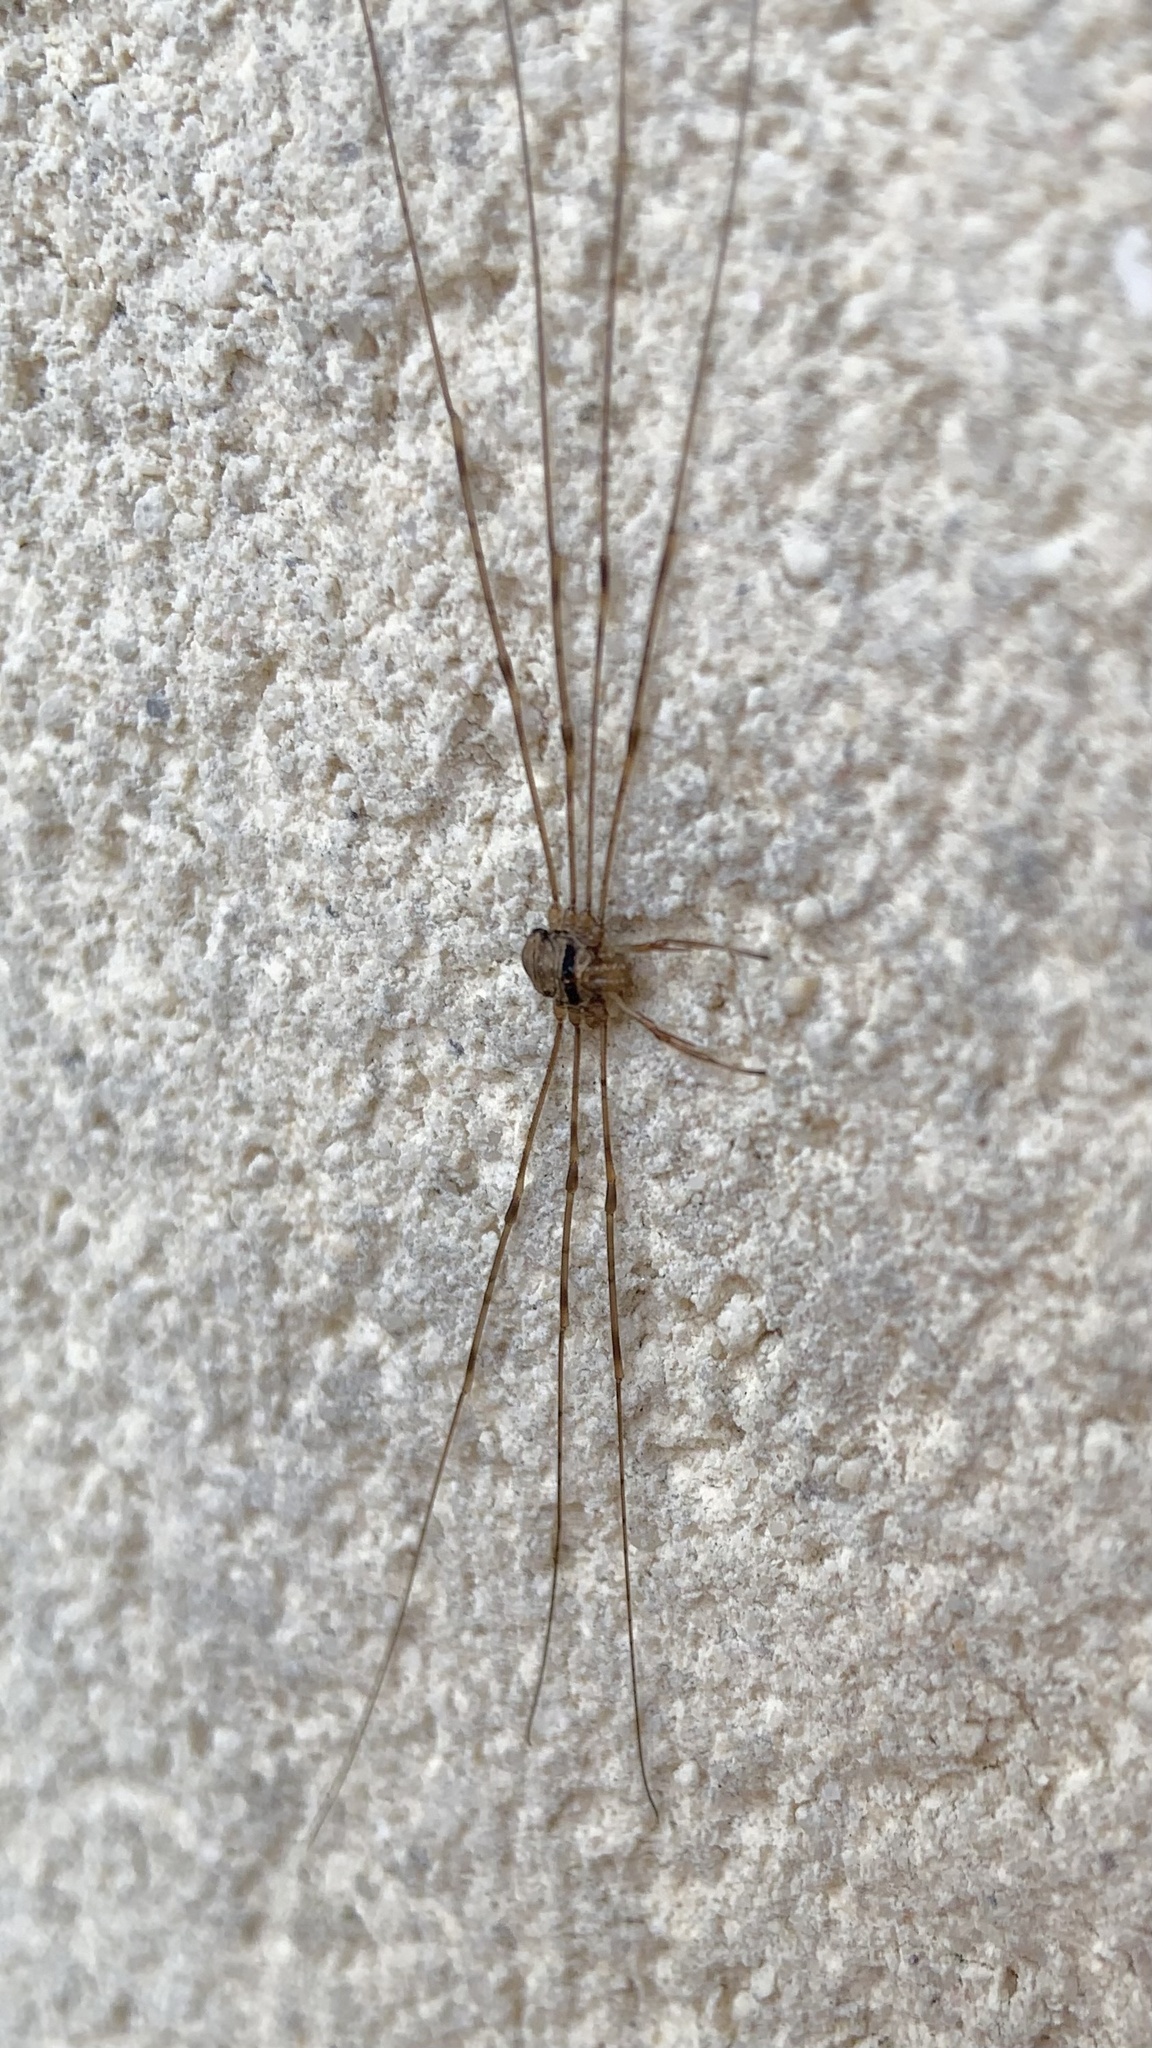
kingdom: Animalia
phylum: Arthropoda
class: Arachnida
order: Opiliones
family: Phalangiidae
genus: Dicranopalpus
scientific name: Dicranopalpus ramosus
